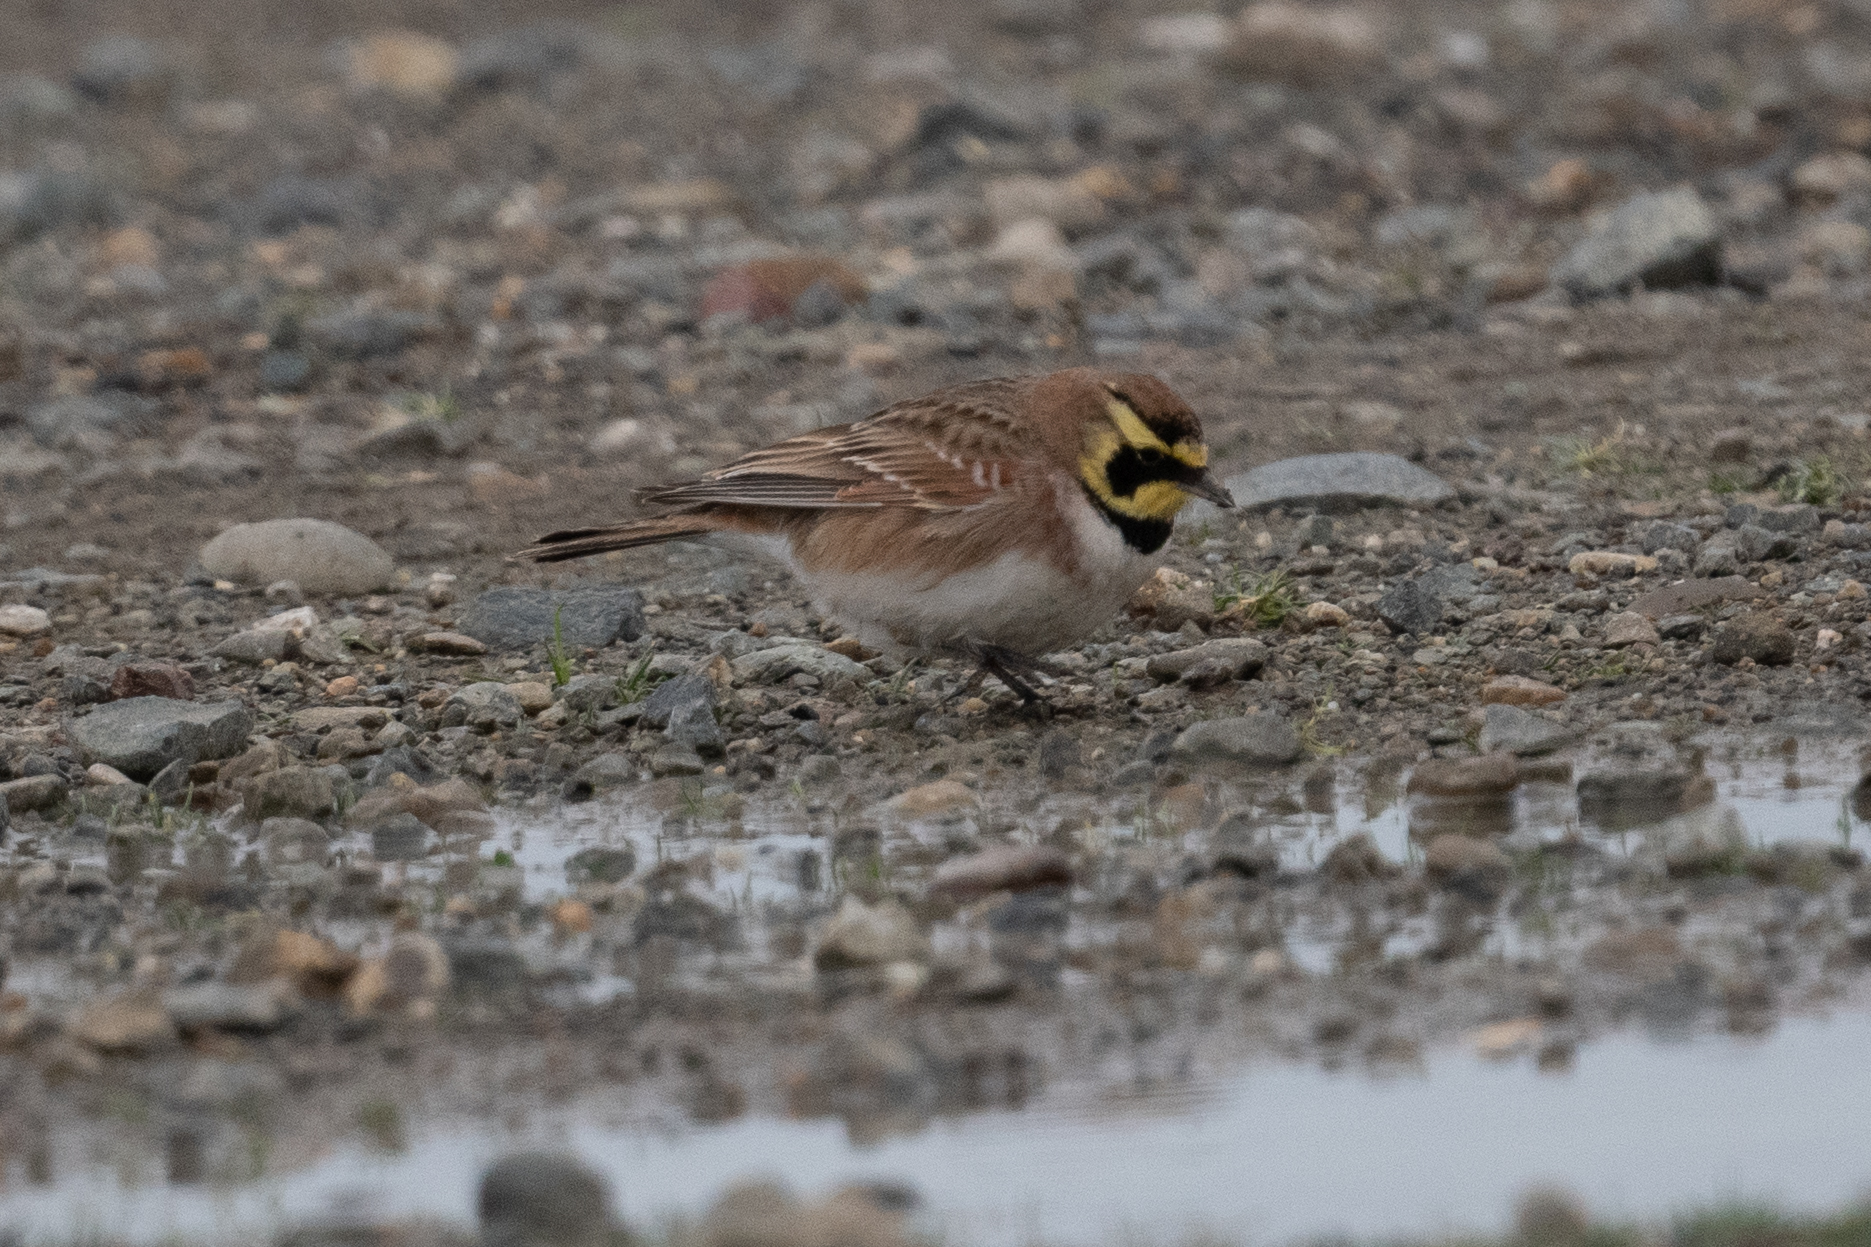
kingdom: Animalia
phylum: Chordata
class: Aves
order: Passeriformes
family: Alaudidae
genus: Eremophila
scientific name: Eremophila alpestris
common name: Horned lark
